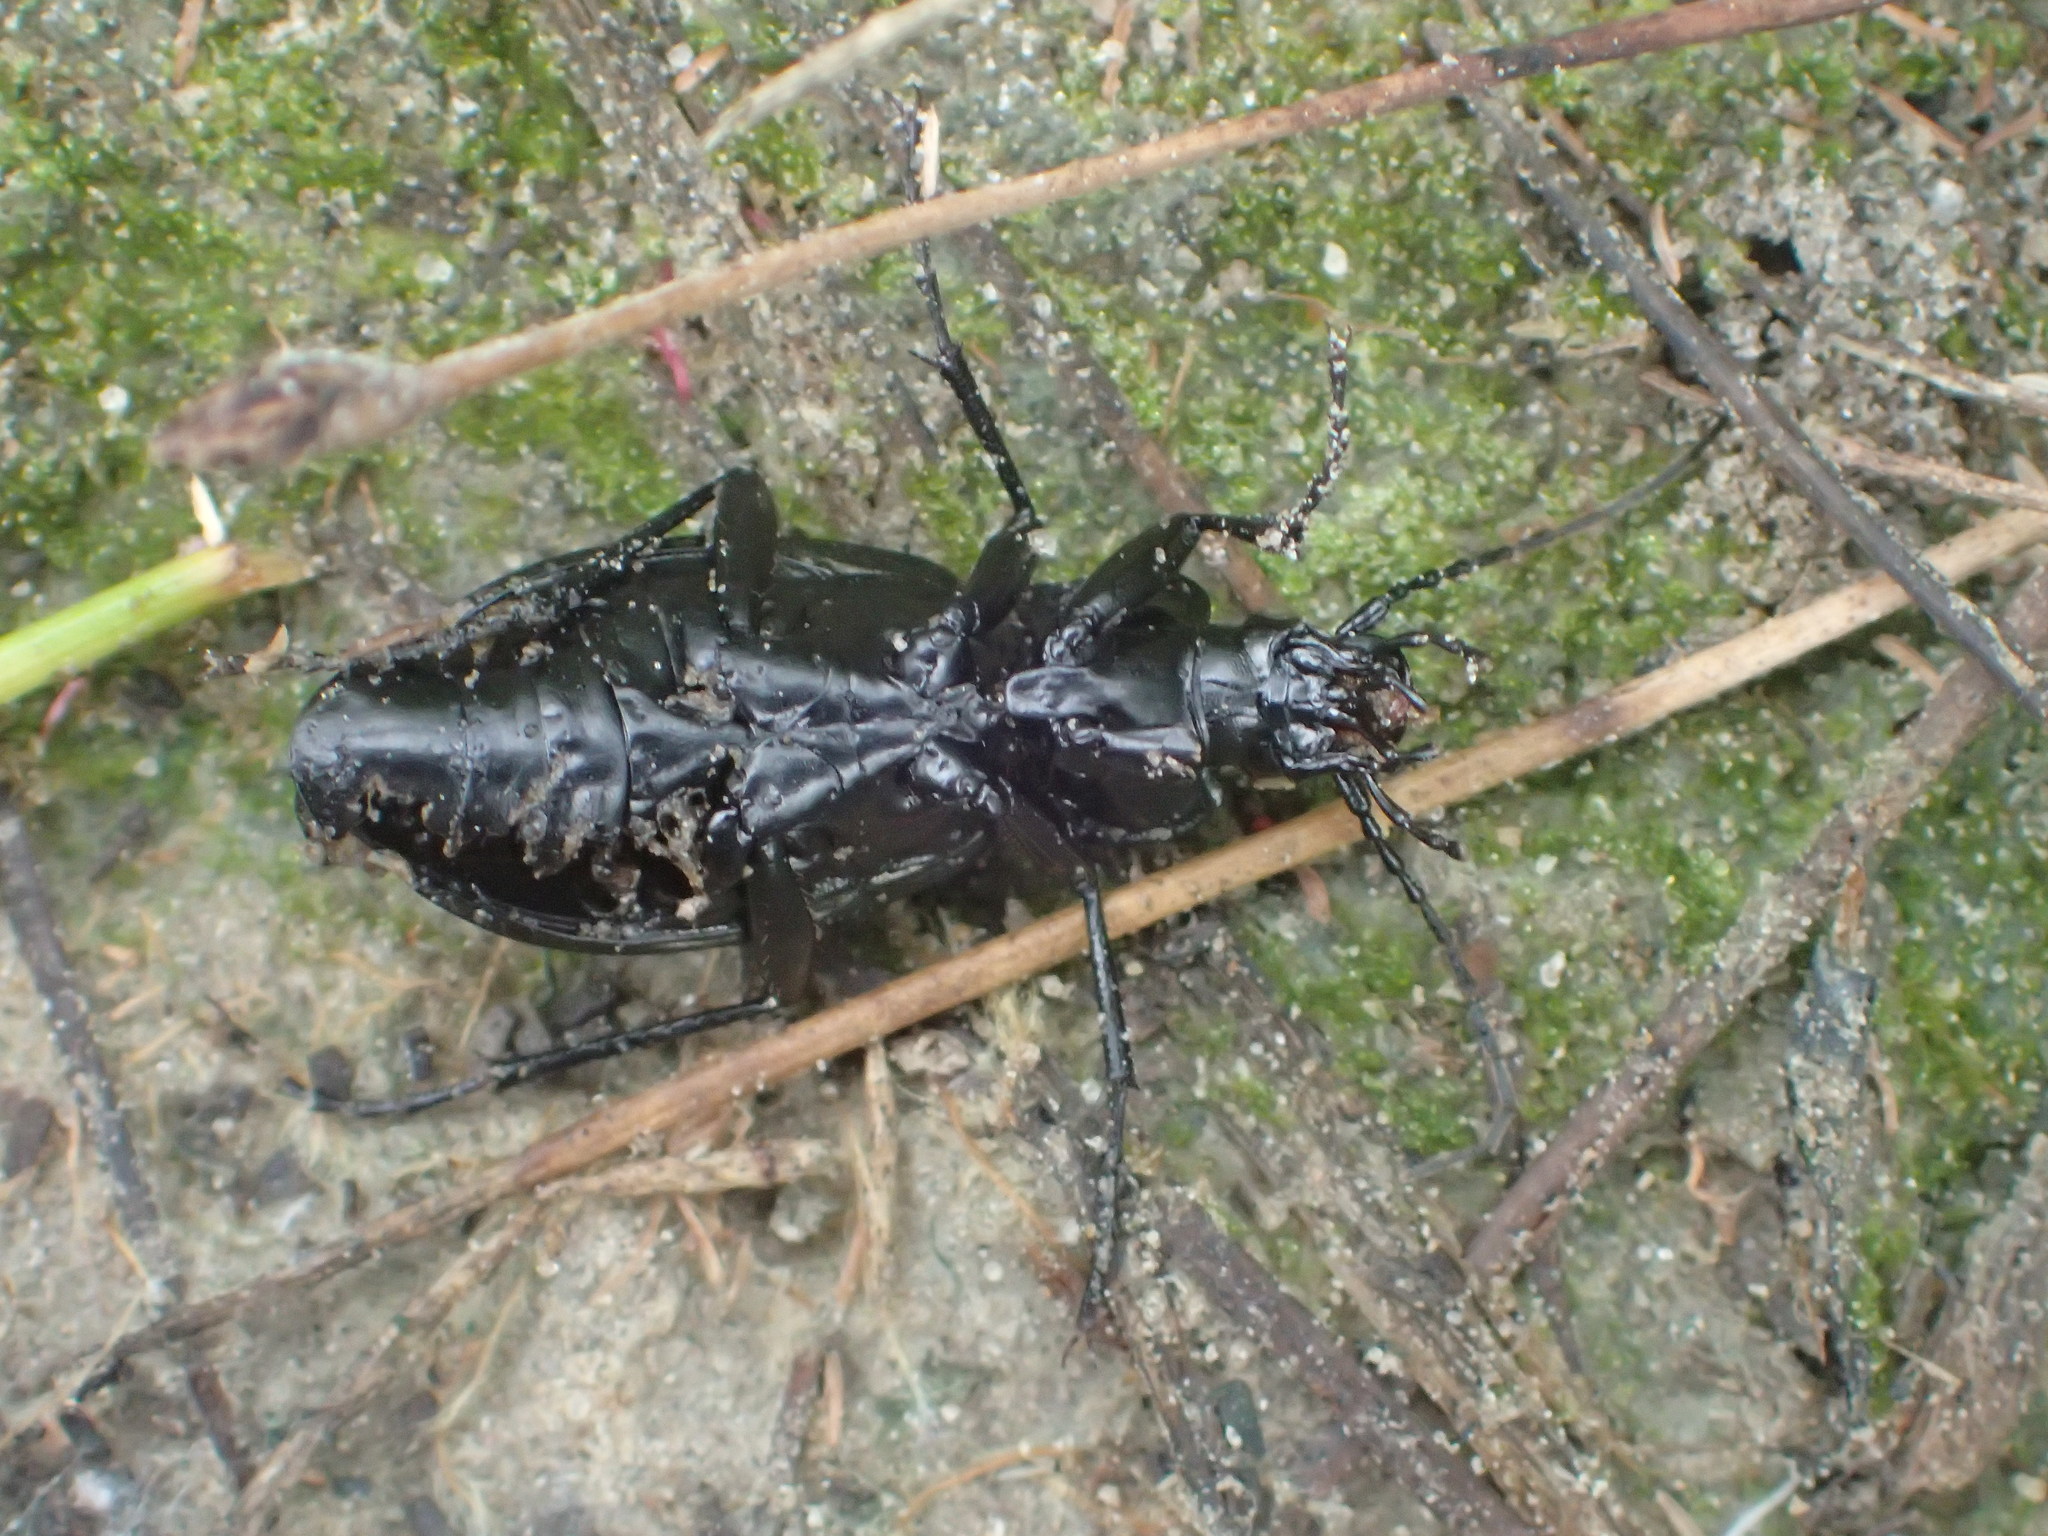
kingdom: Animalia
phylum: Arthropoda
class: Insecta
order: Coleoptera
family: Carabidae
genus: Carabus
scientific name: Carabus granulatus
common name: Granulate ground beetle
